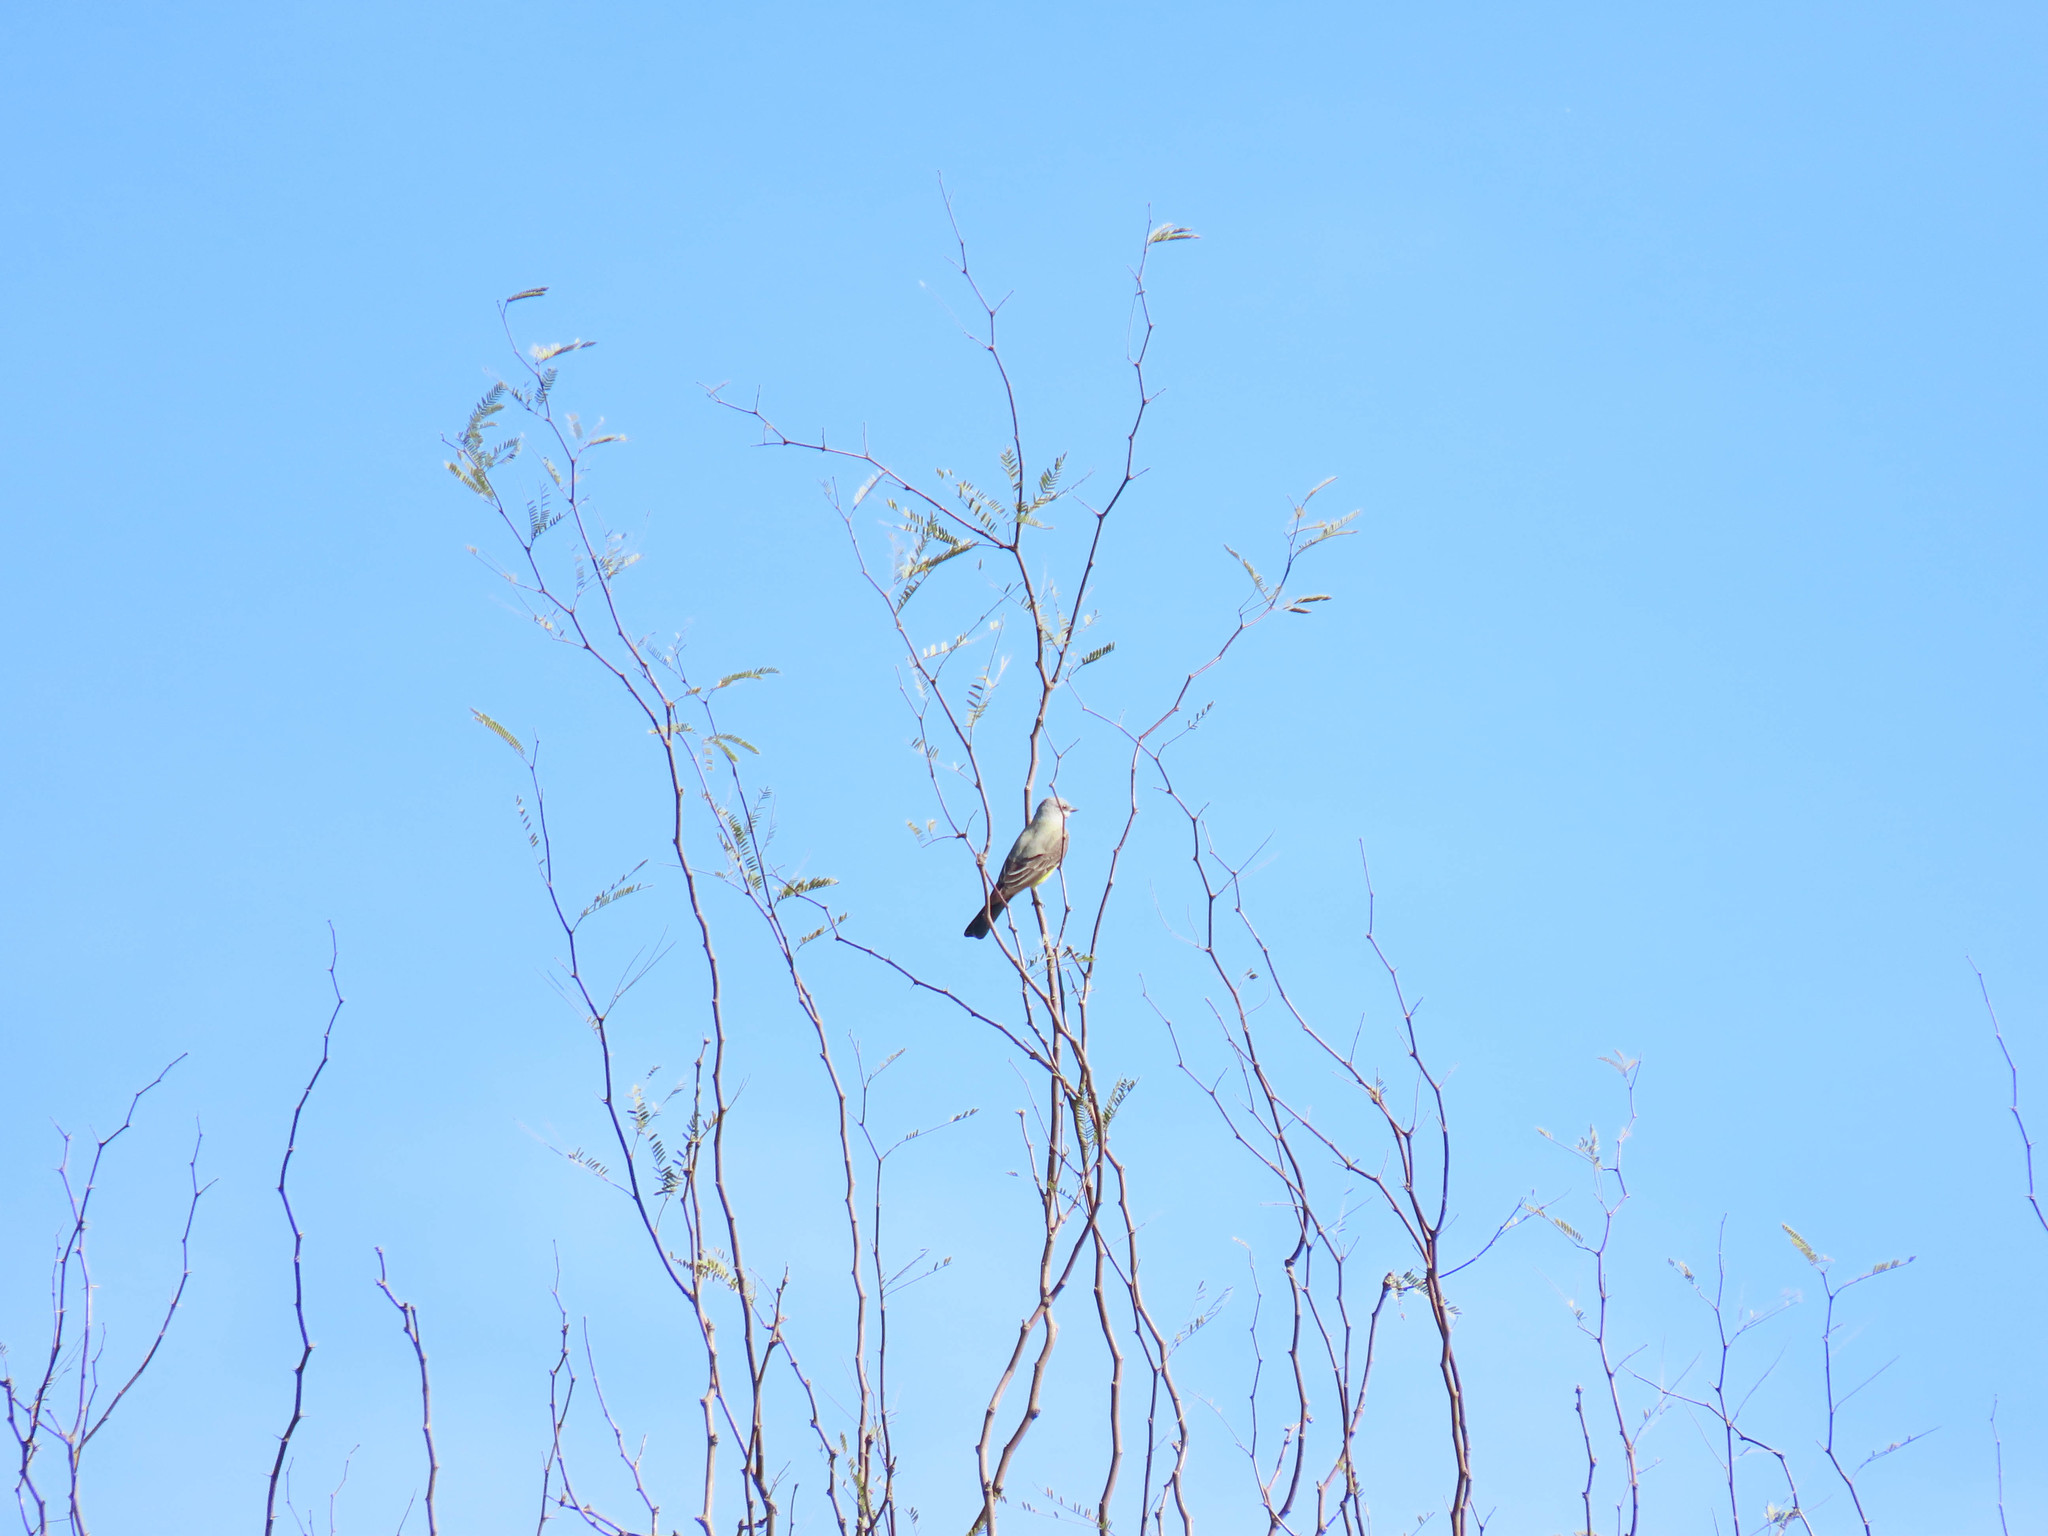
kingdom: Animalia
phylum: Chordata
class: Aves
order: Passeriformes
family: Tyrannidae
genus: Tyrannus
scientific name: Tyrannus verticalis
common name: Western kingbird
